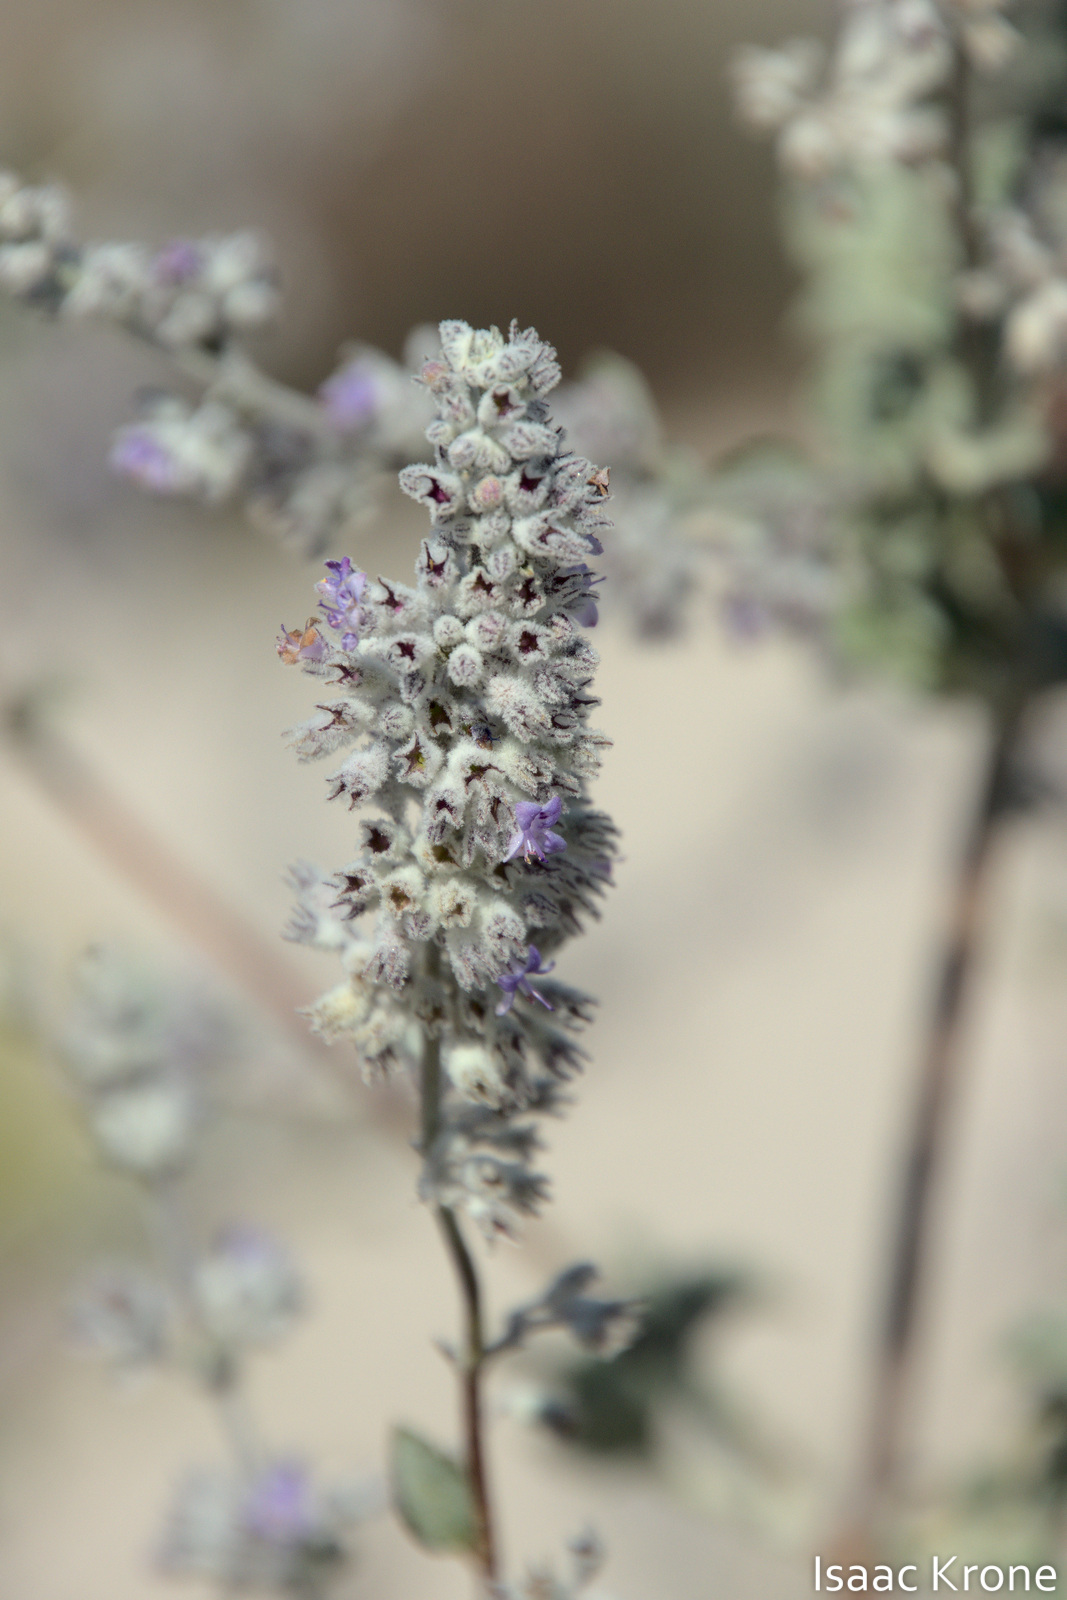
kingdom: Plantae
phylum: Tracheophyta
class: Magnoliopsida
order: Lamiales
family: Lamiaceae
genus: Condea
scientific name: Condea emoryi
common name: Chia
